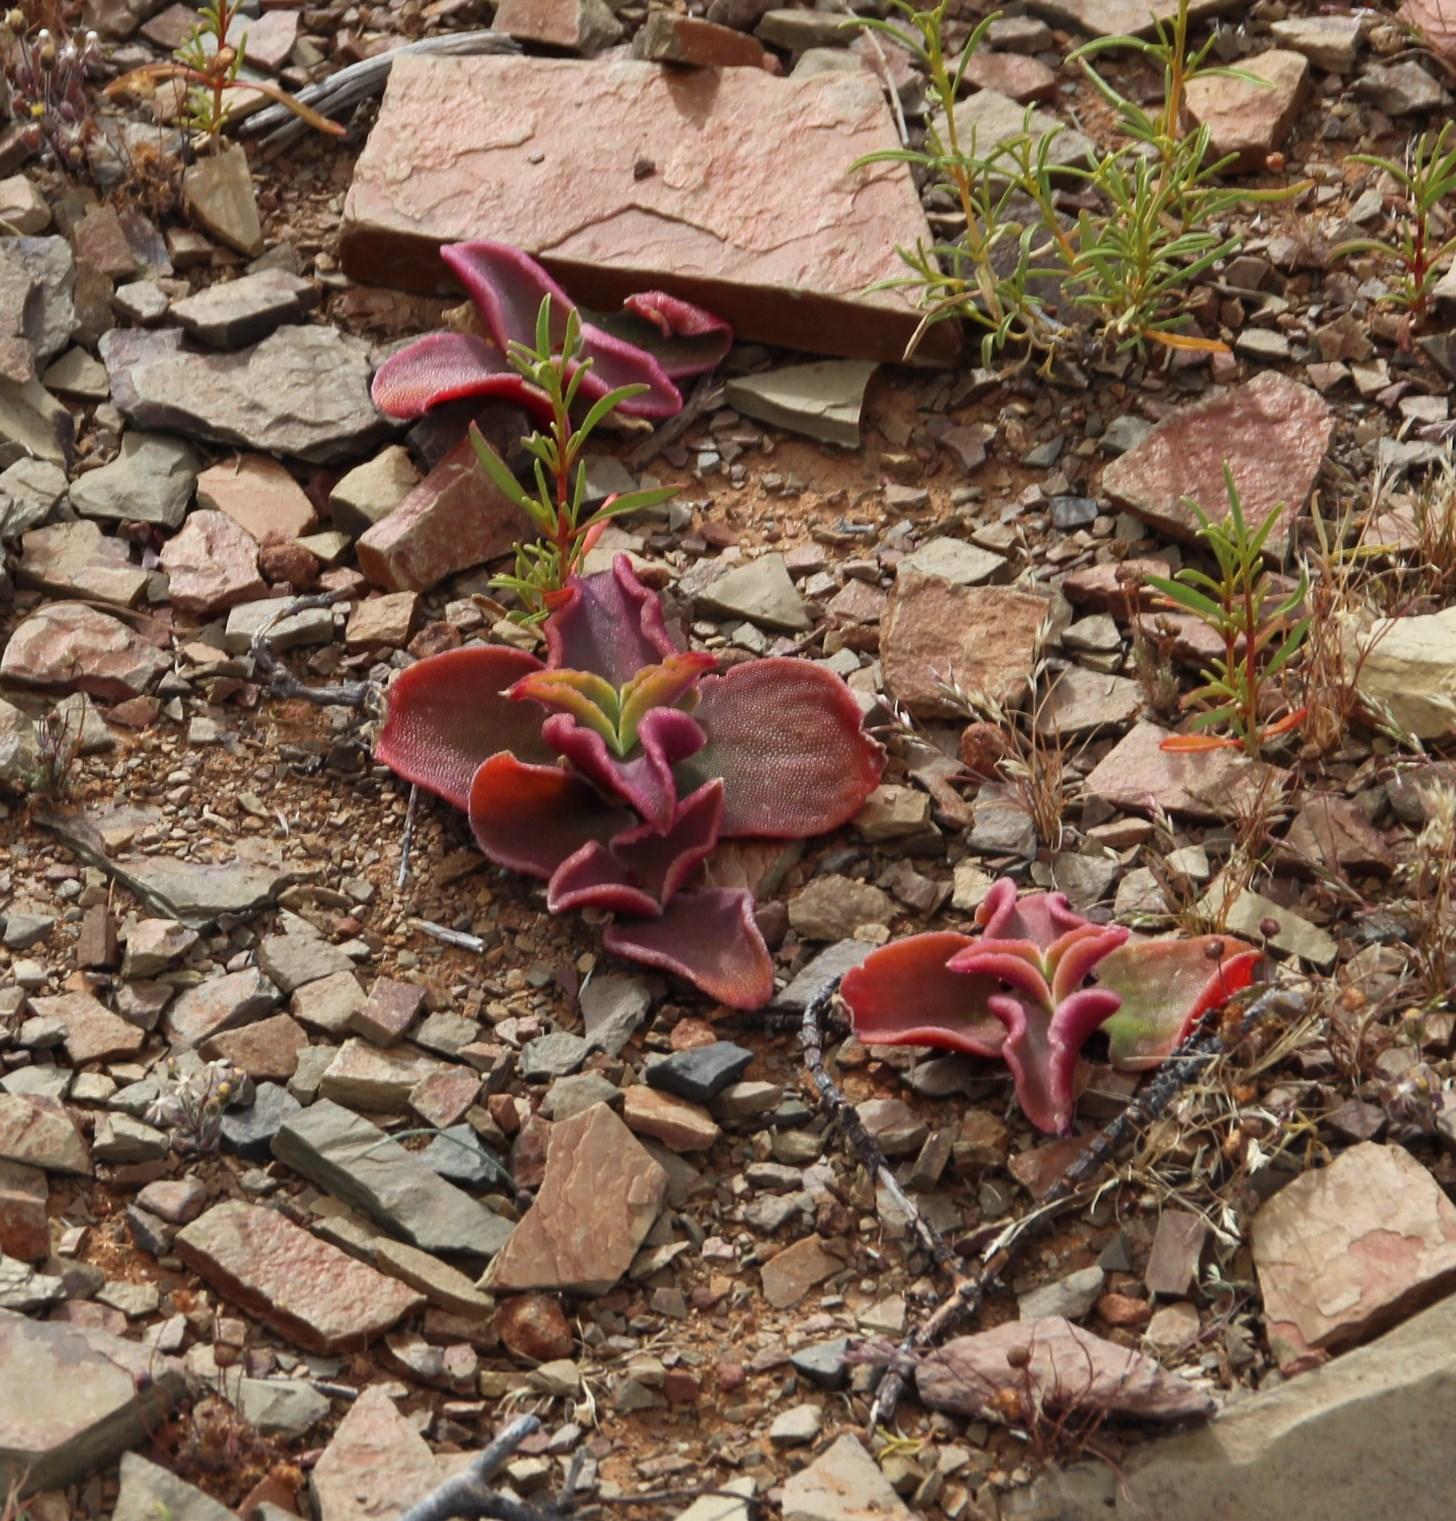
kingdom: Plantae
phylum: Tracheophyta
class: Magnoliopsida
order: Caryophyllales
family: Aizoaceae
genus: Mesembryanthemum
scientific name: Mesembryanthemum guerichianum
